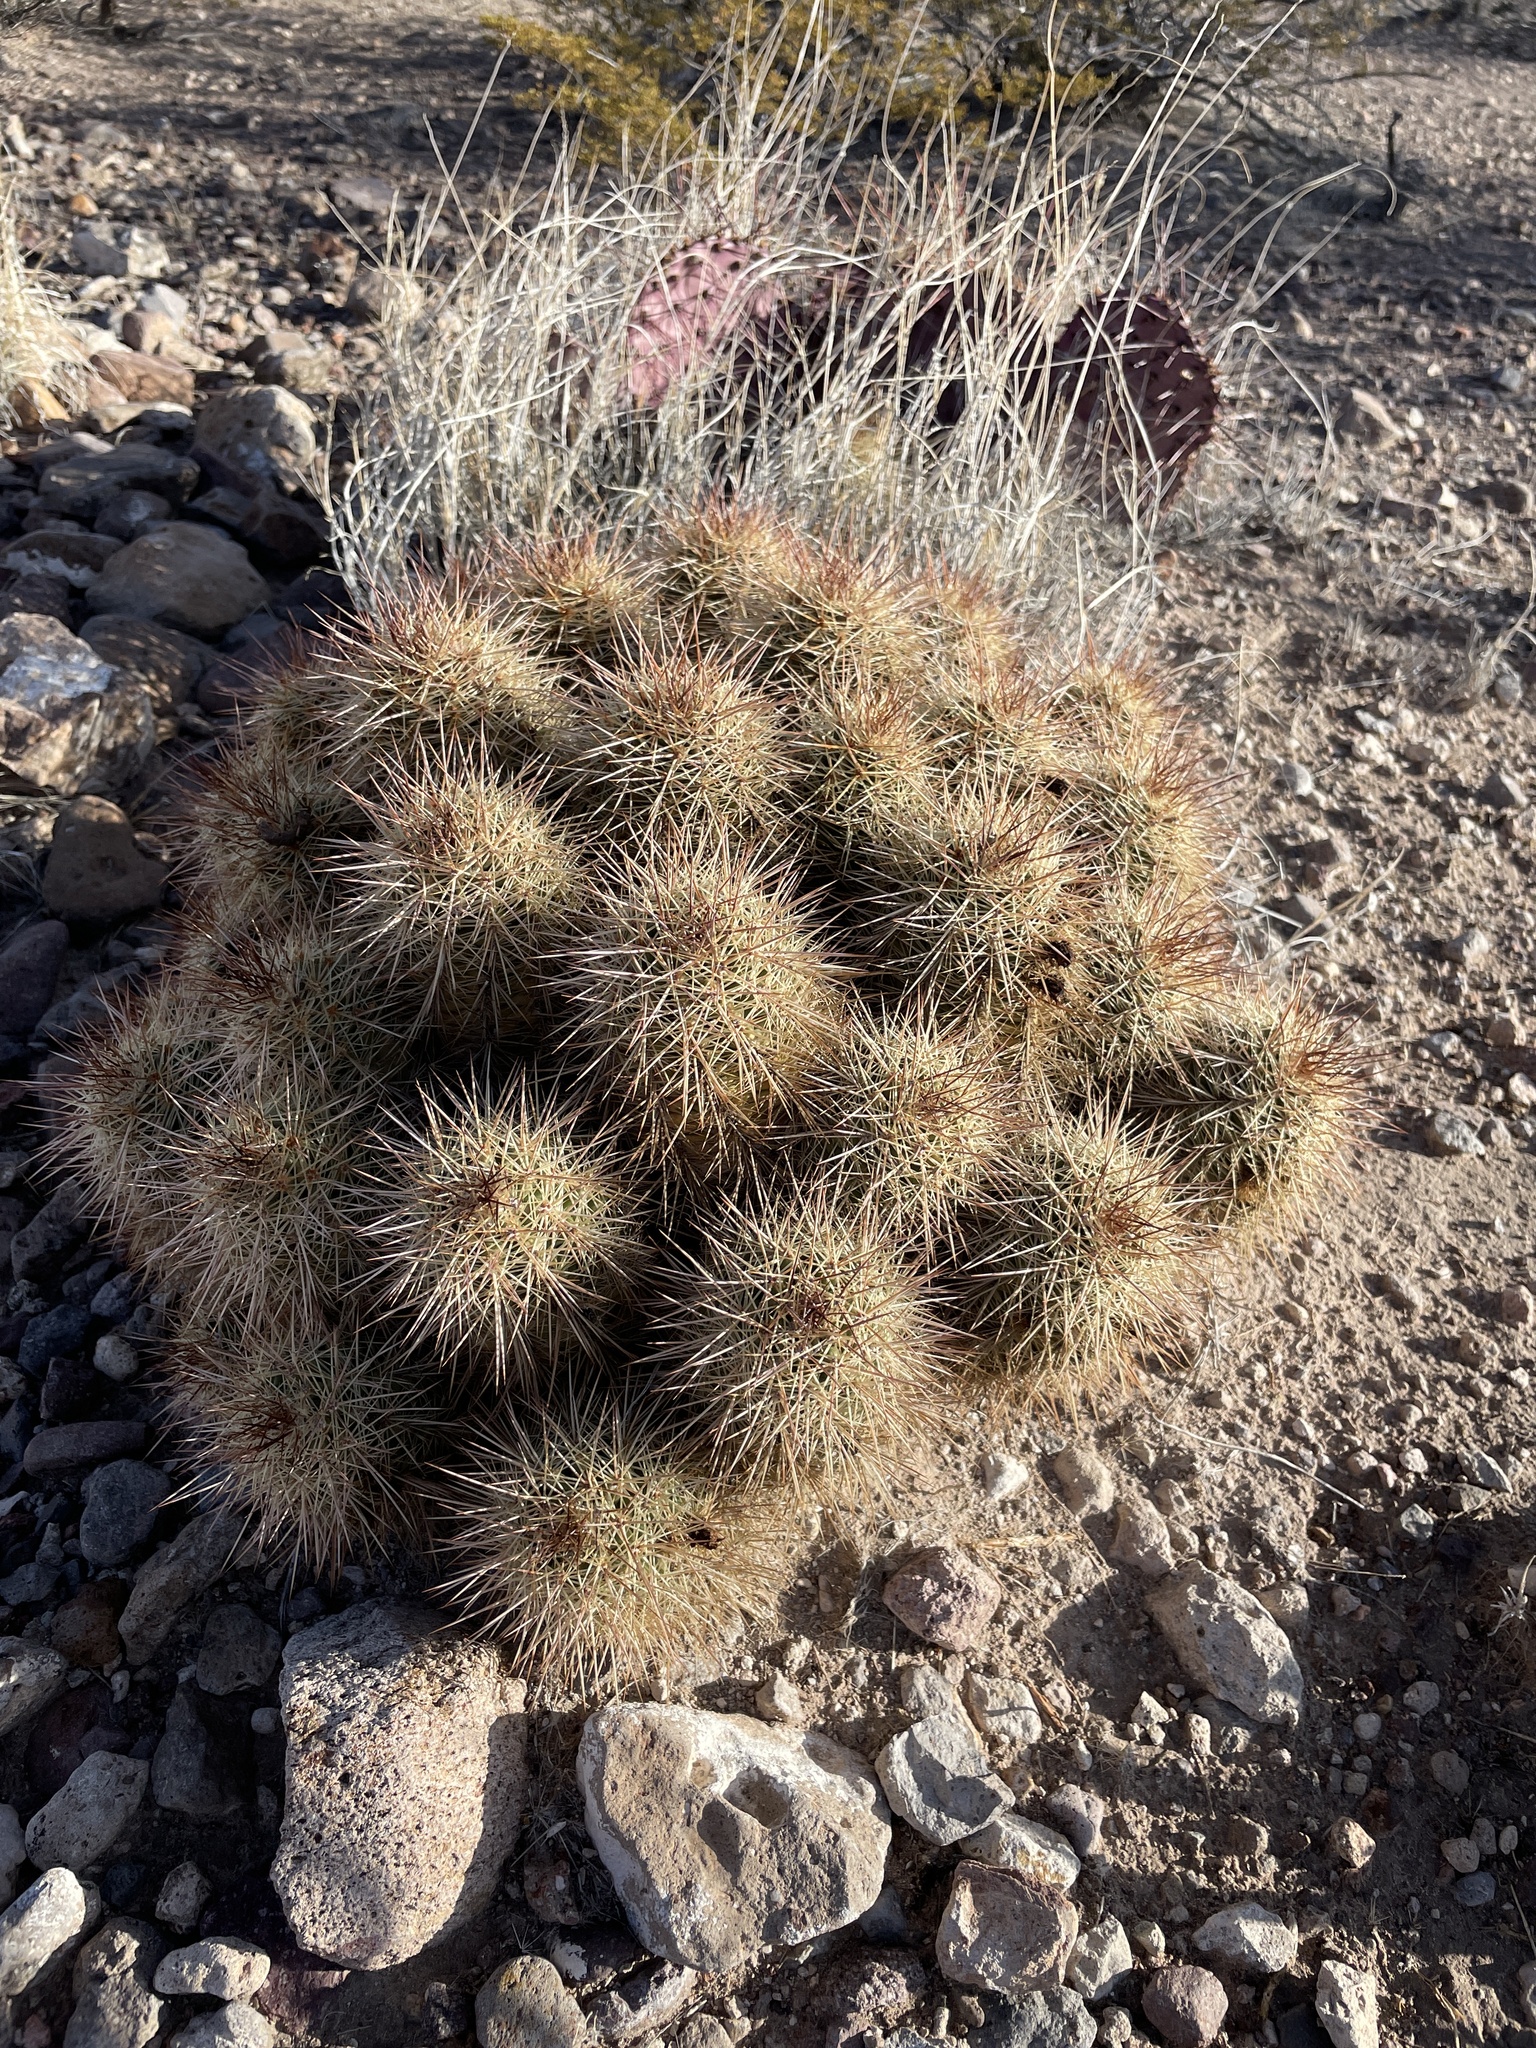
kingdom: Plantae
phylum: Tracheophyta
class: Magnoliopsida
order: Caryophyllales
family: Cactaceae
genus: Echinocereus
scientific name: Echinocereus coccineus
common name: Scarlet hedgehog cactus
